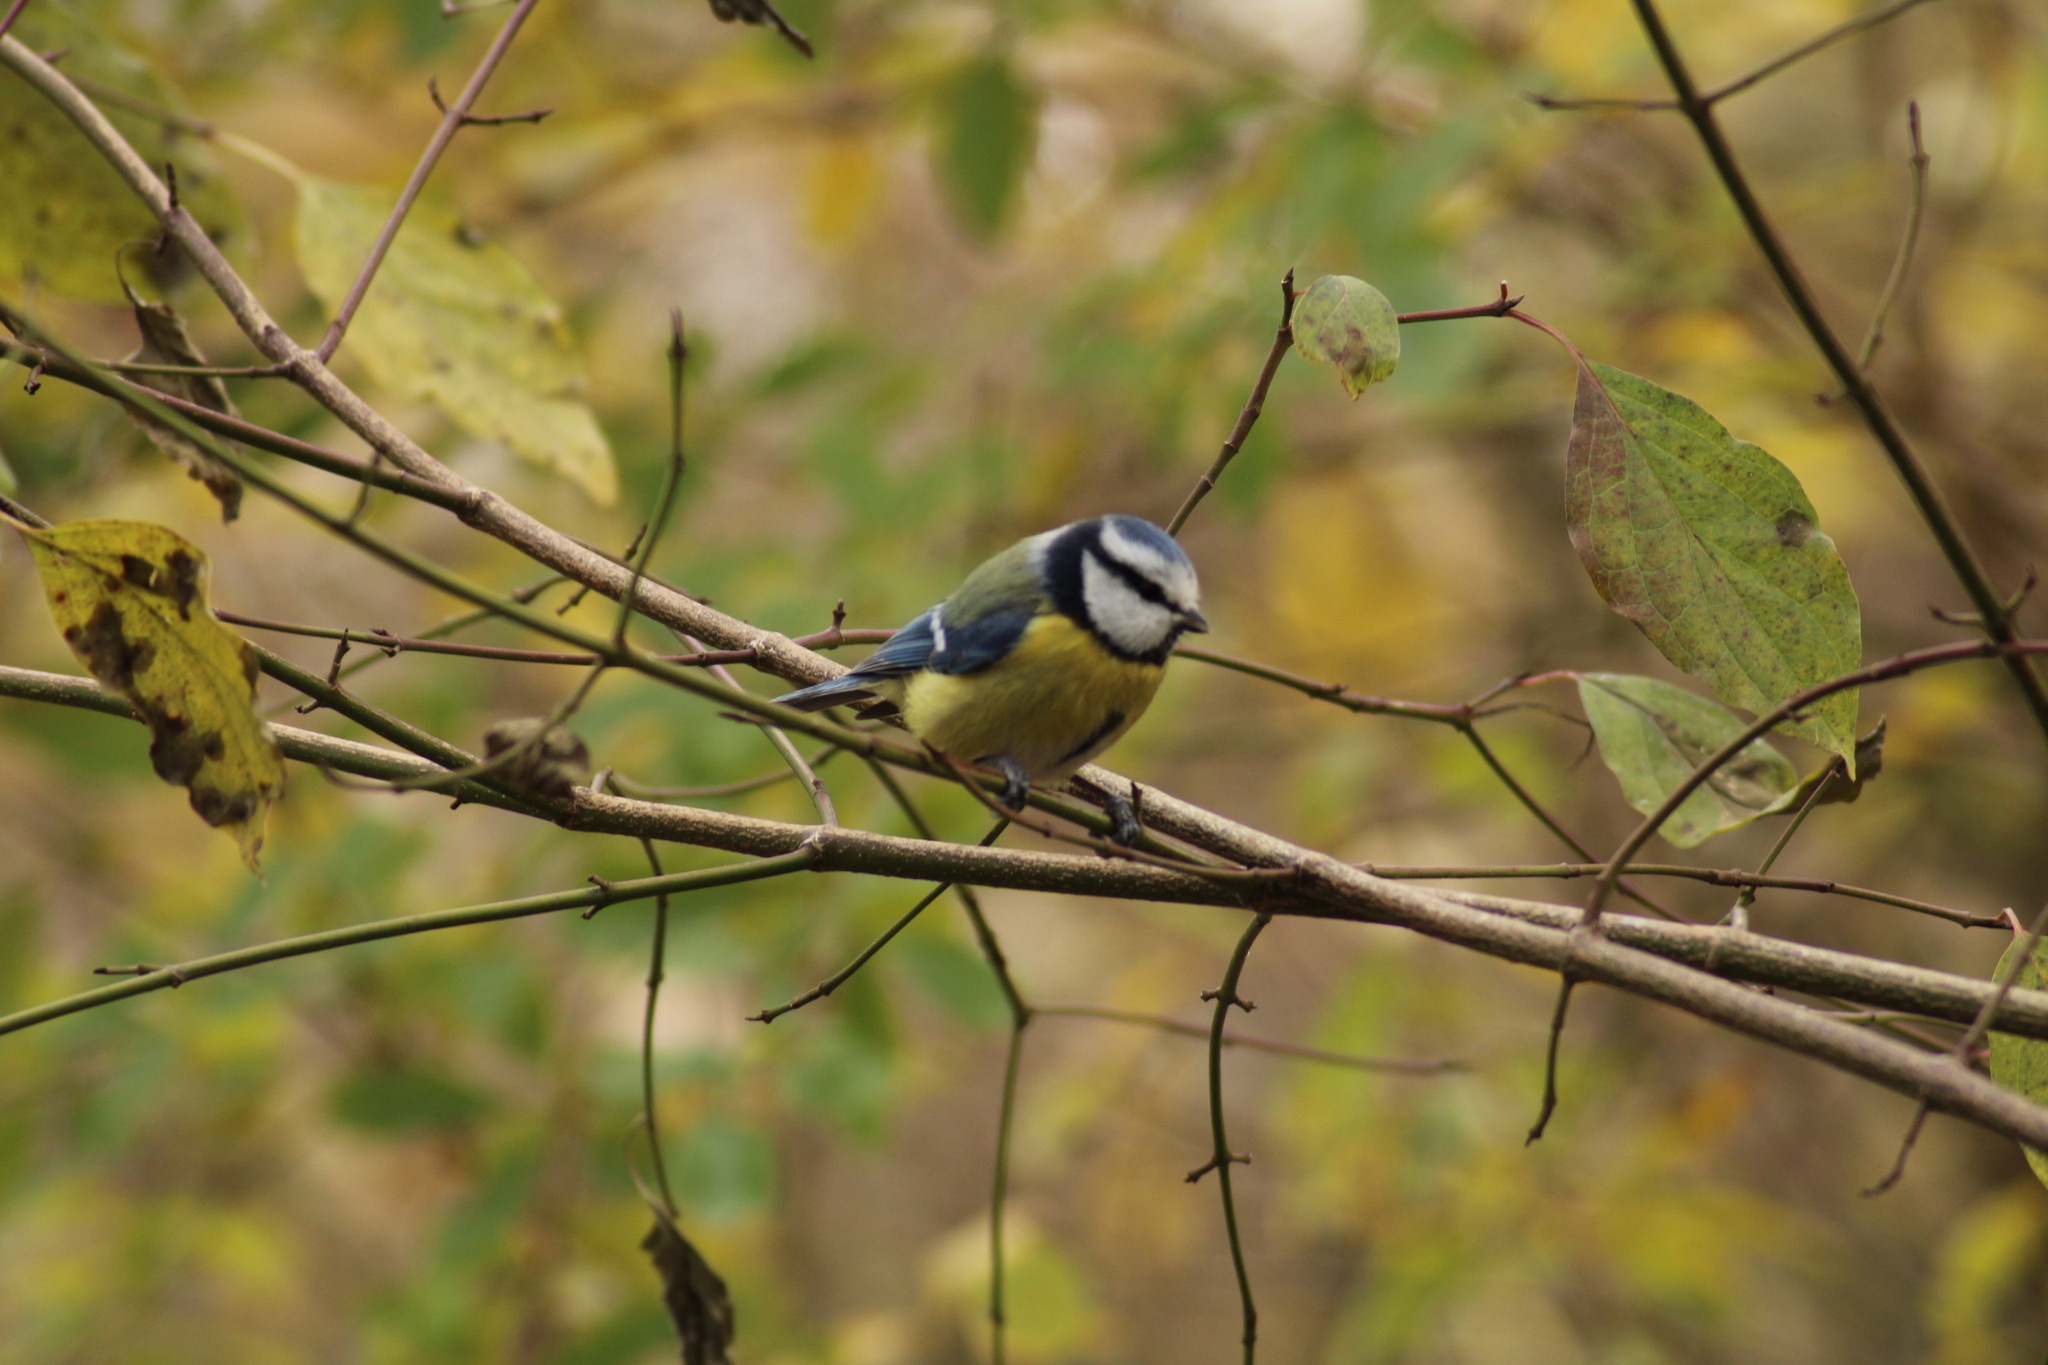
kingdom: Animalia
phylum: Chordata
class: Aves
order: Passeriformes
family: Paridae
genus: Cyanistes
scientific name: Cyanistes caeruleus
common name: Eurasian blue tit
